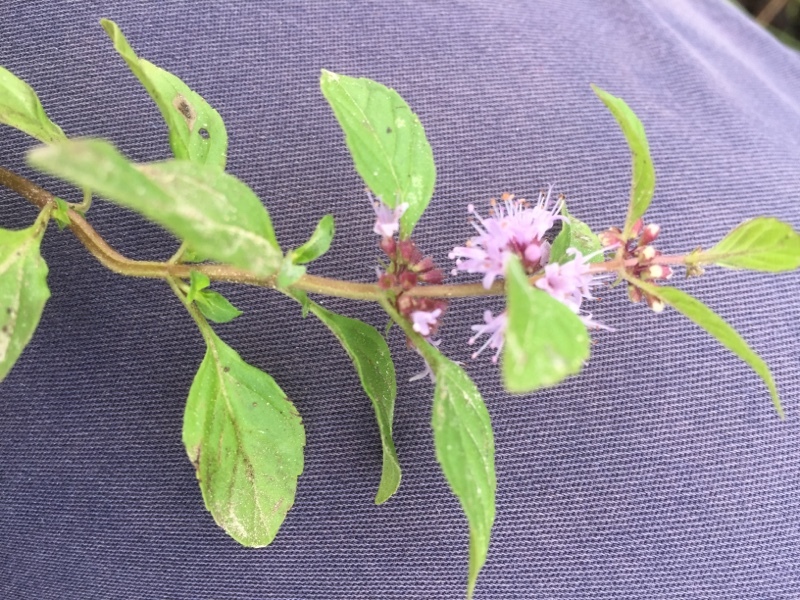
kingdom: Plantae
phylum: Tracheophyta
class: Magnoliopsida
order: Lamiales
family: Lamiaceae
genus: Mentha
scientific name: Mentha arvensis
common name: Corn mint
